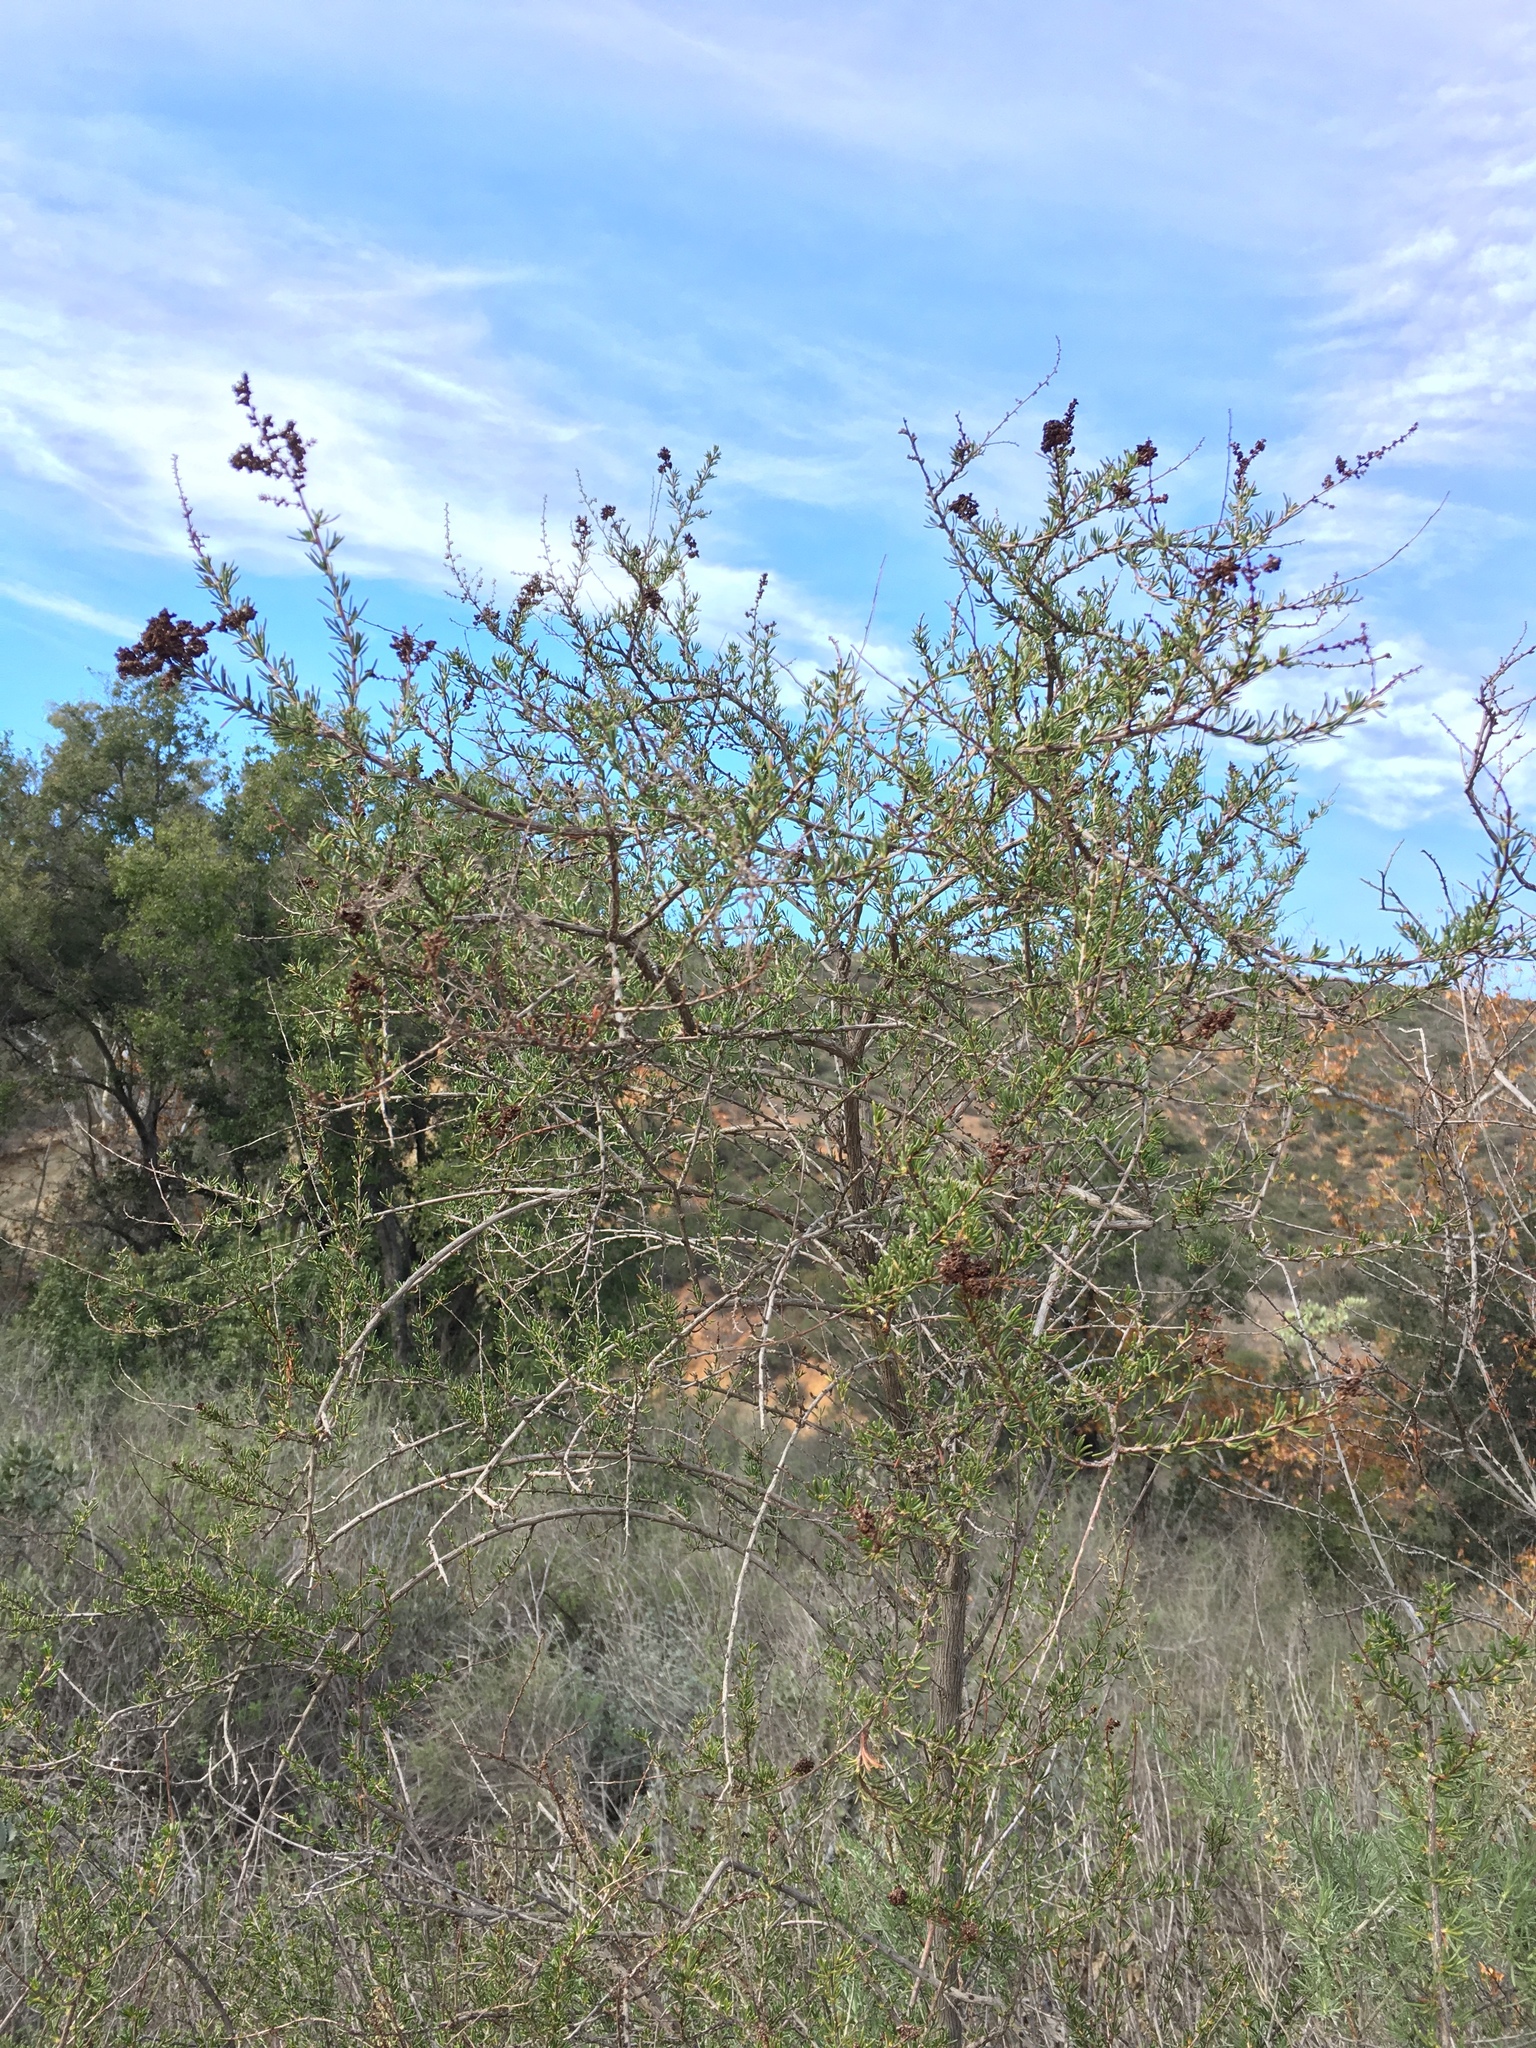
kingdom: Plantae
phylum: Tracheophyta
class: Magnoliopsida
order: Rosales
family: Rosaceae
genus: Adenostoma
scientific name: Adenostoma fasciculatum
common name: Chamise
